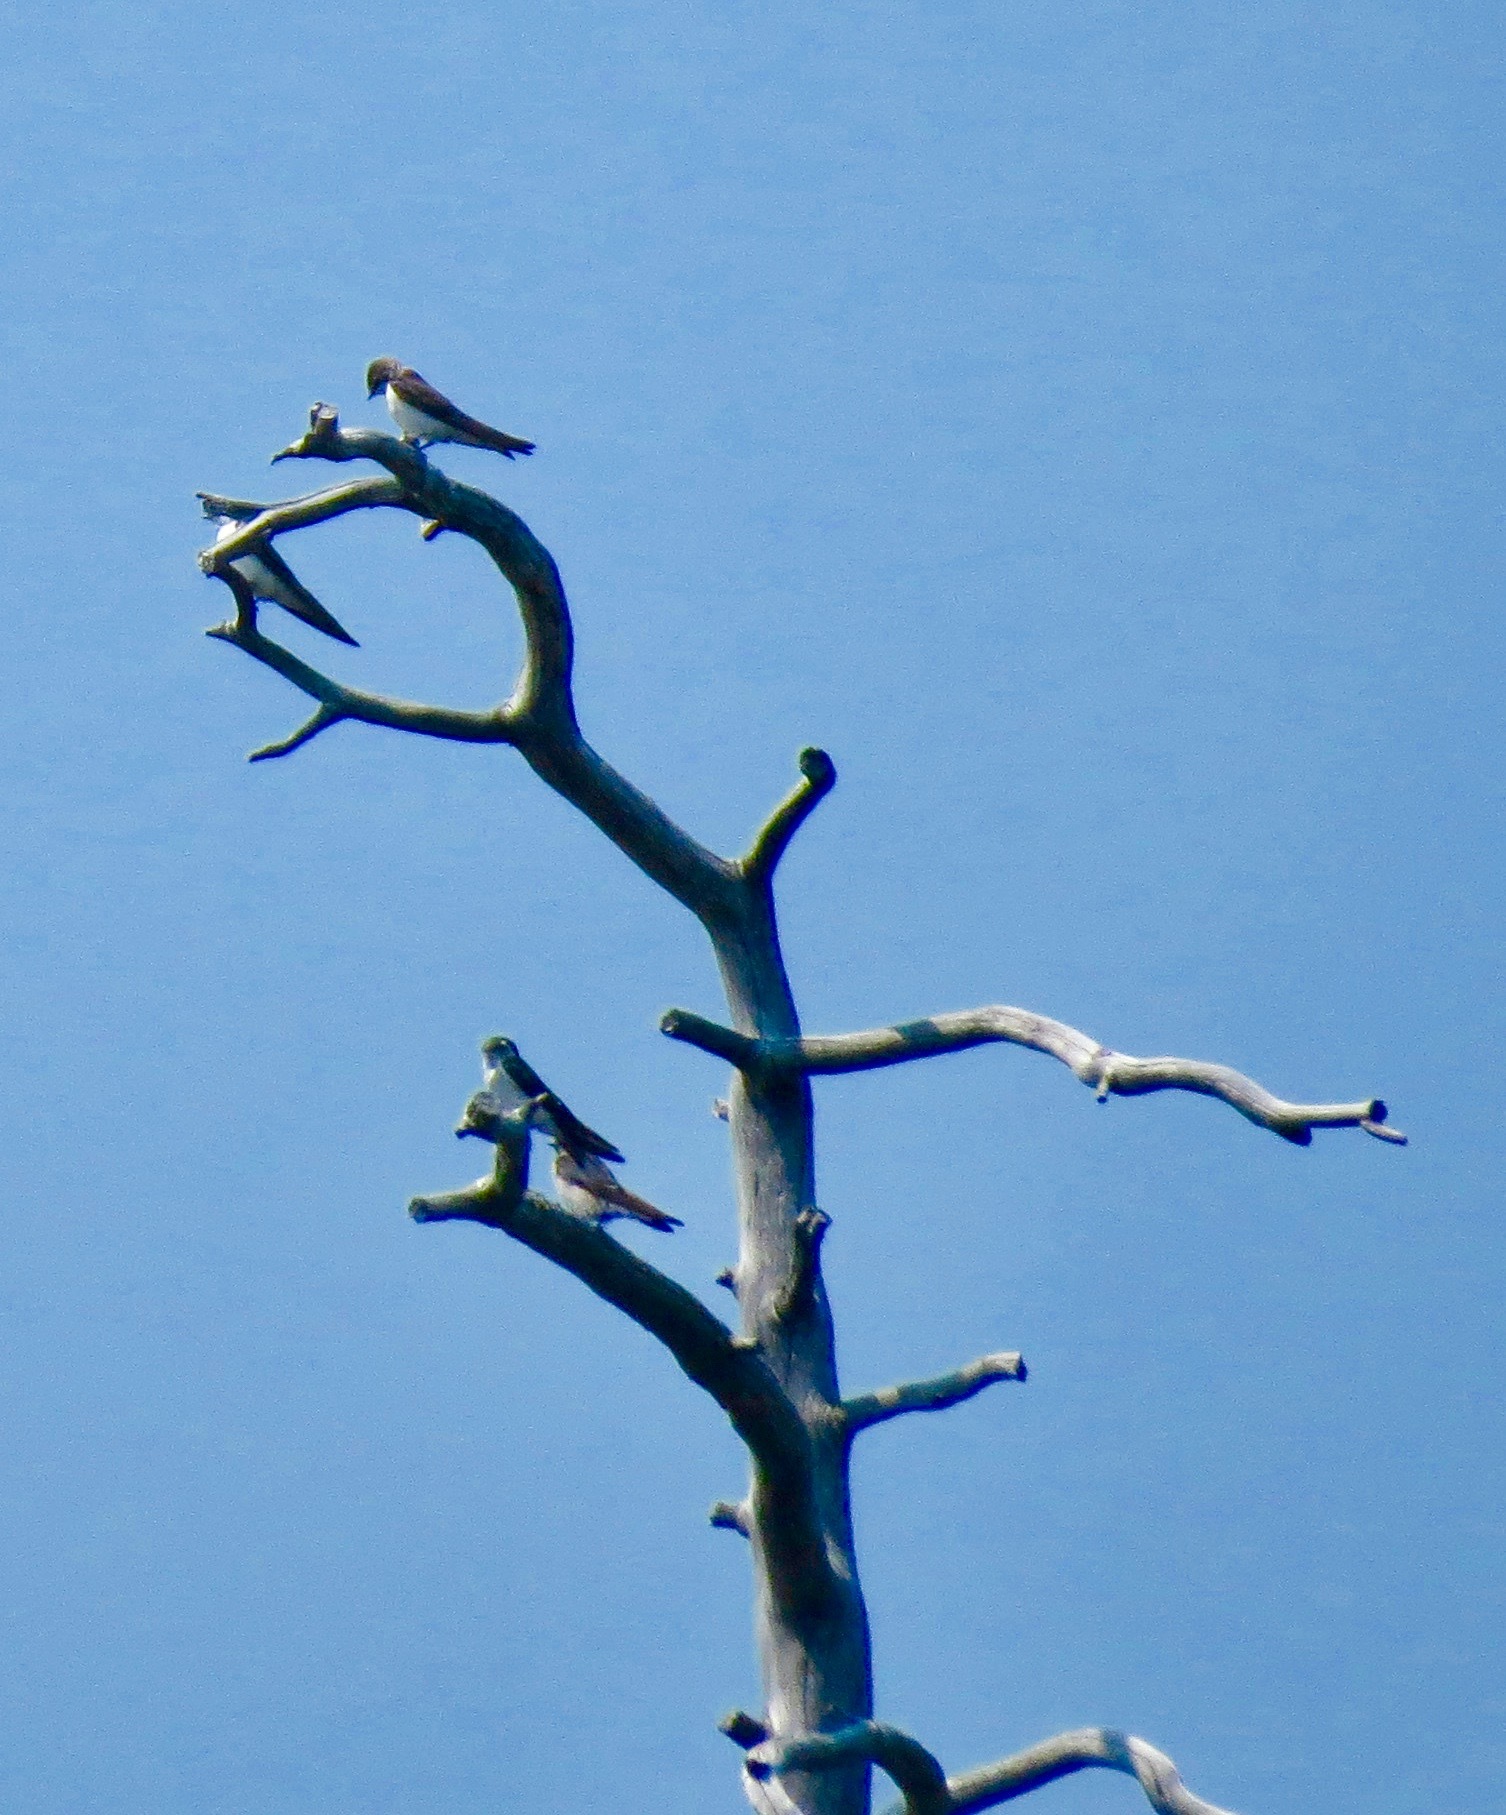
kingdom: Animalia
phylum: Chordata
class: Aves
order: Passeriformes
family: Hirundinidae
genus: Tachycineta
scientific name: Tachycineta thalassina
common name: Violet-green swallow
